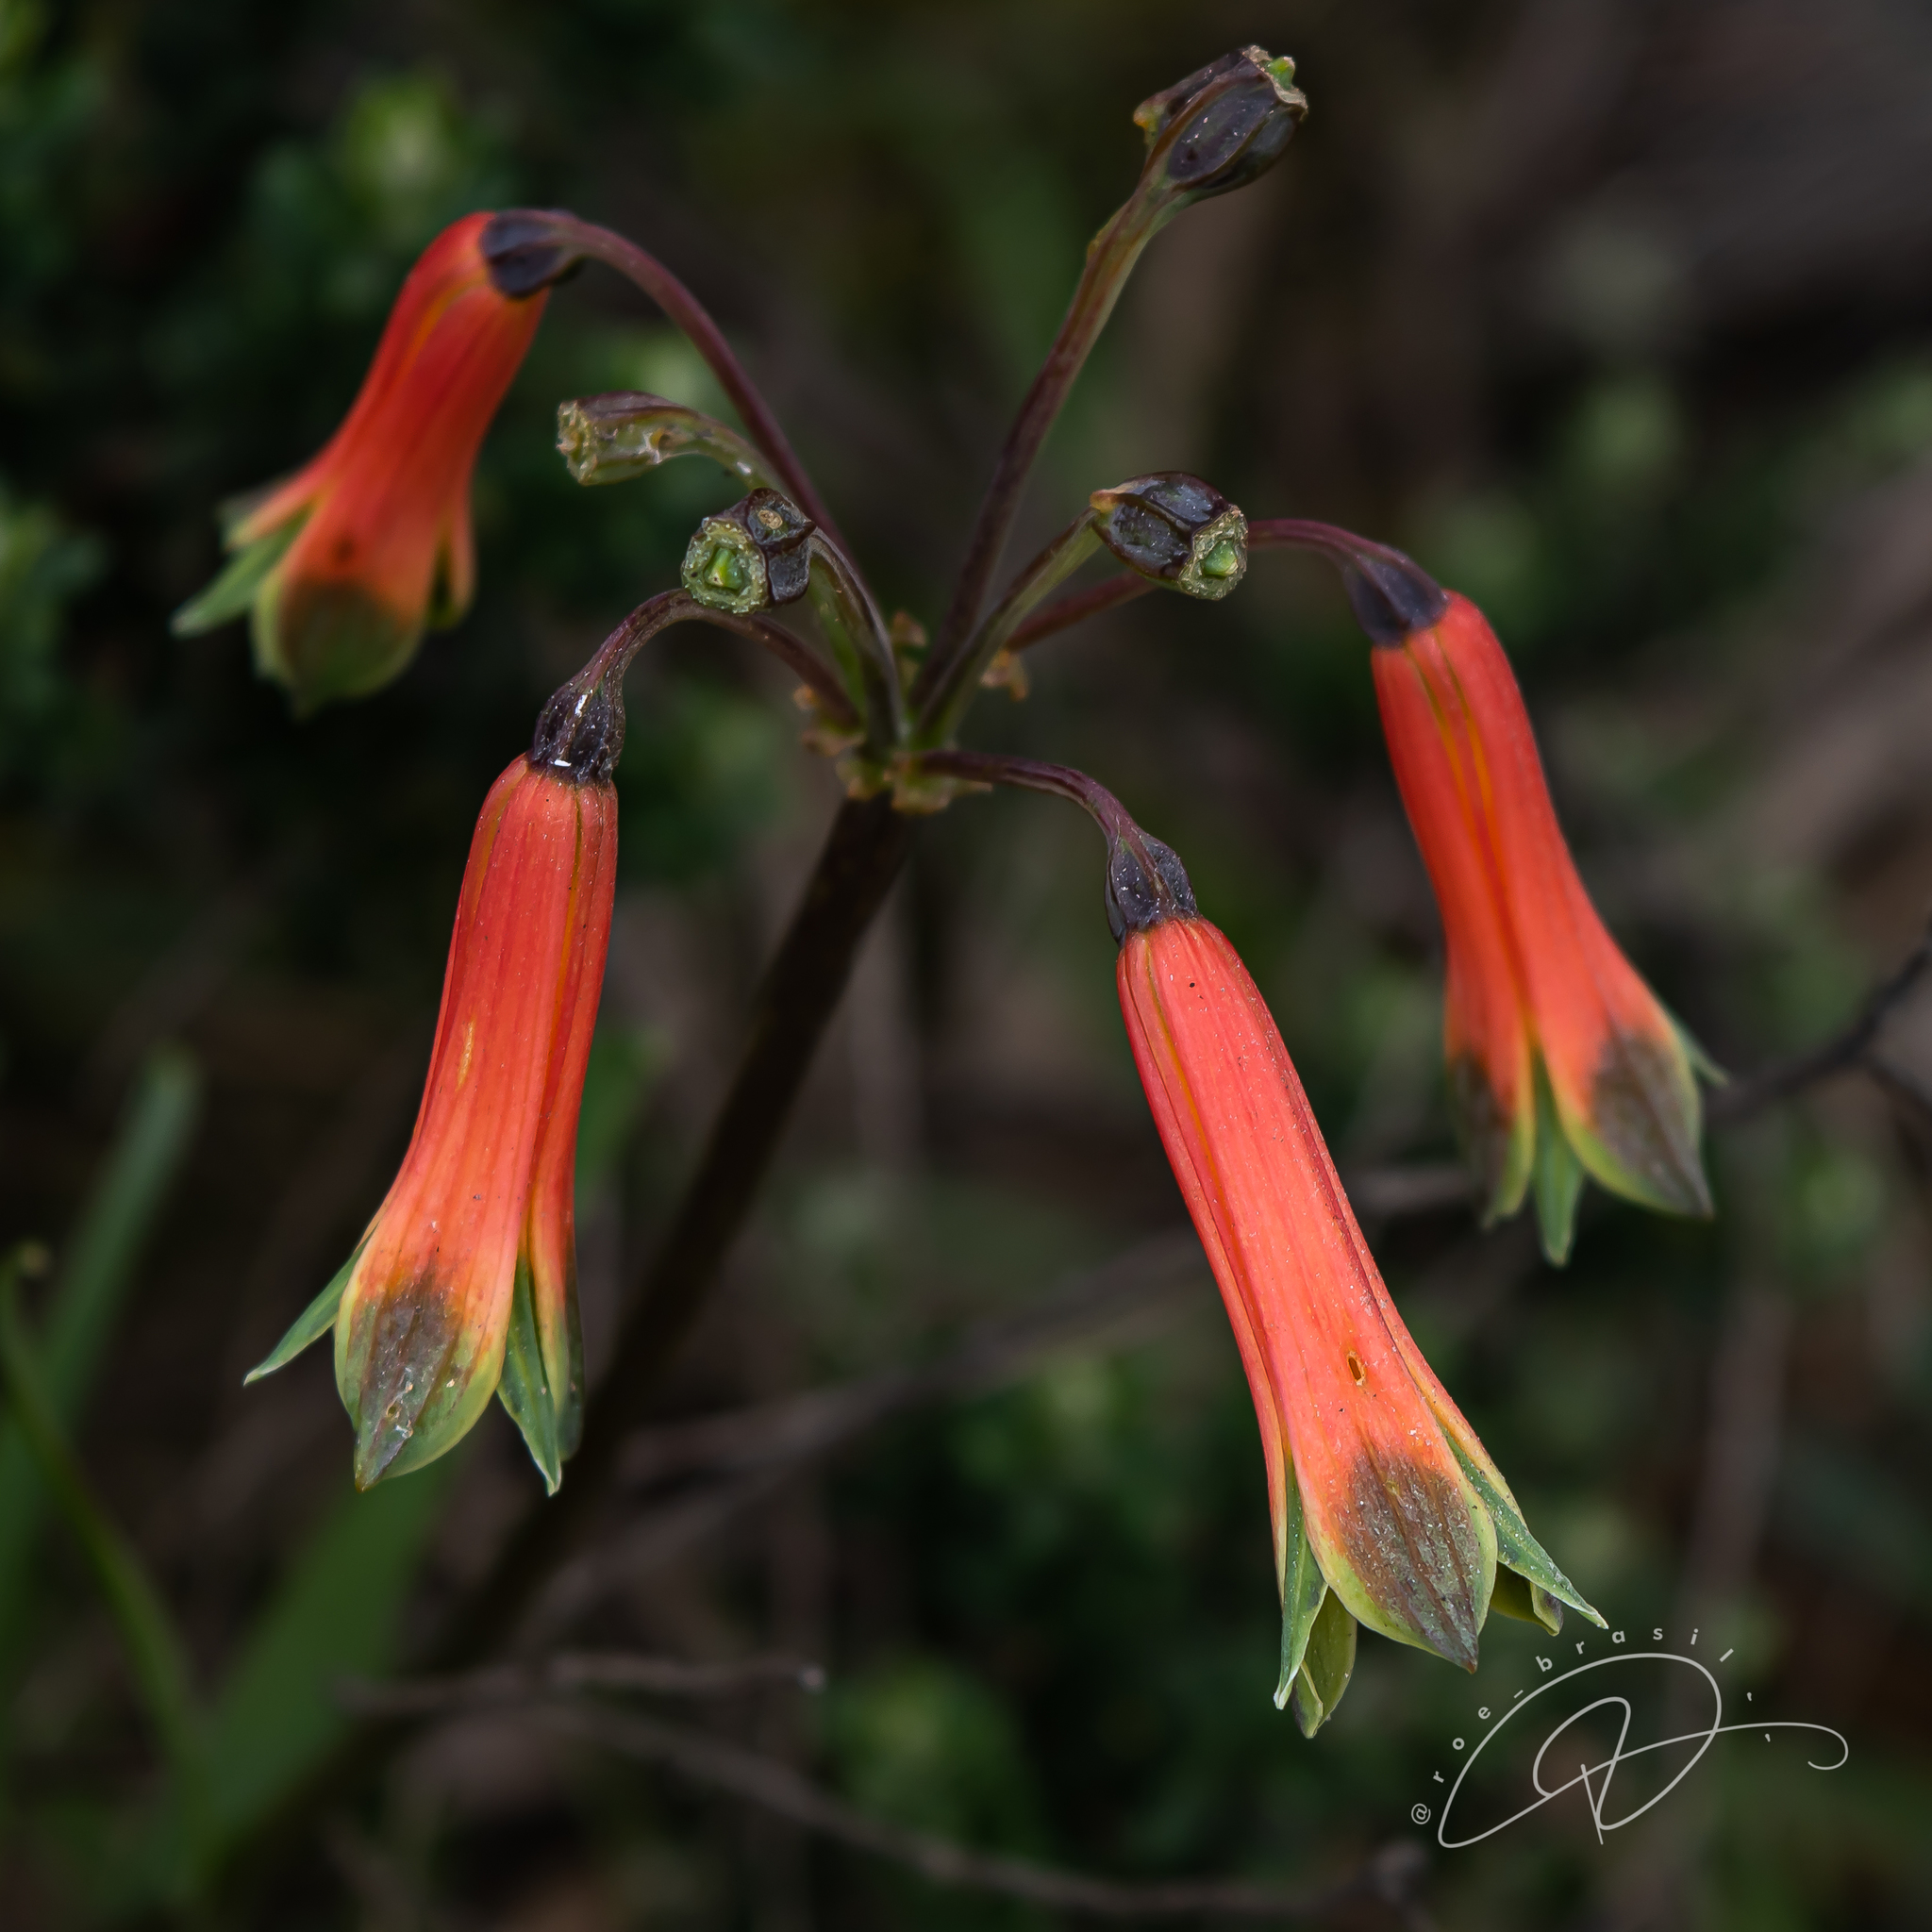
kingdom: Plantae
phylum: Tracheophyta
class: Liliopsida
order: Liliales
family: Alstroemeriaceae
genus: Alstroemeria
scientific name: Alstroemeria isabelleana
